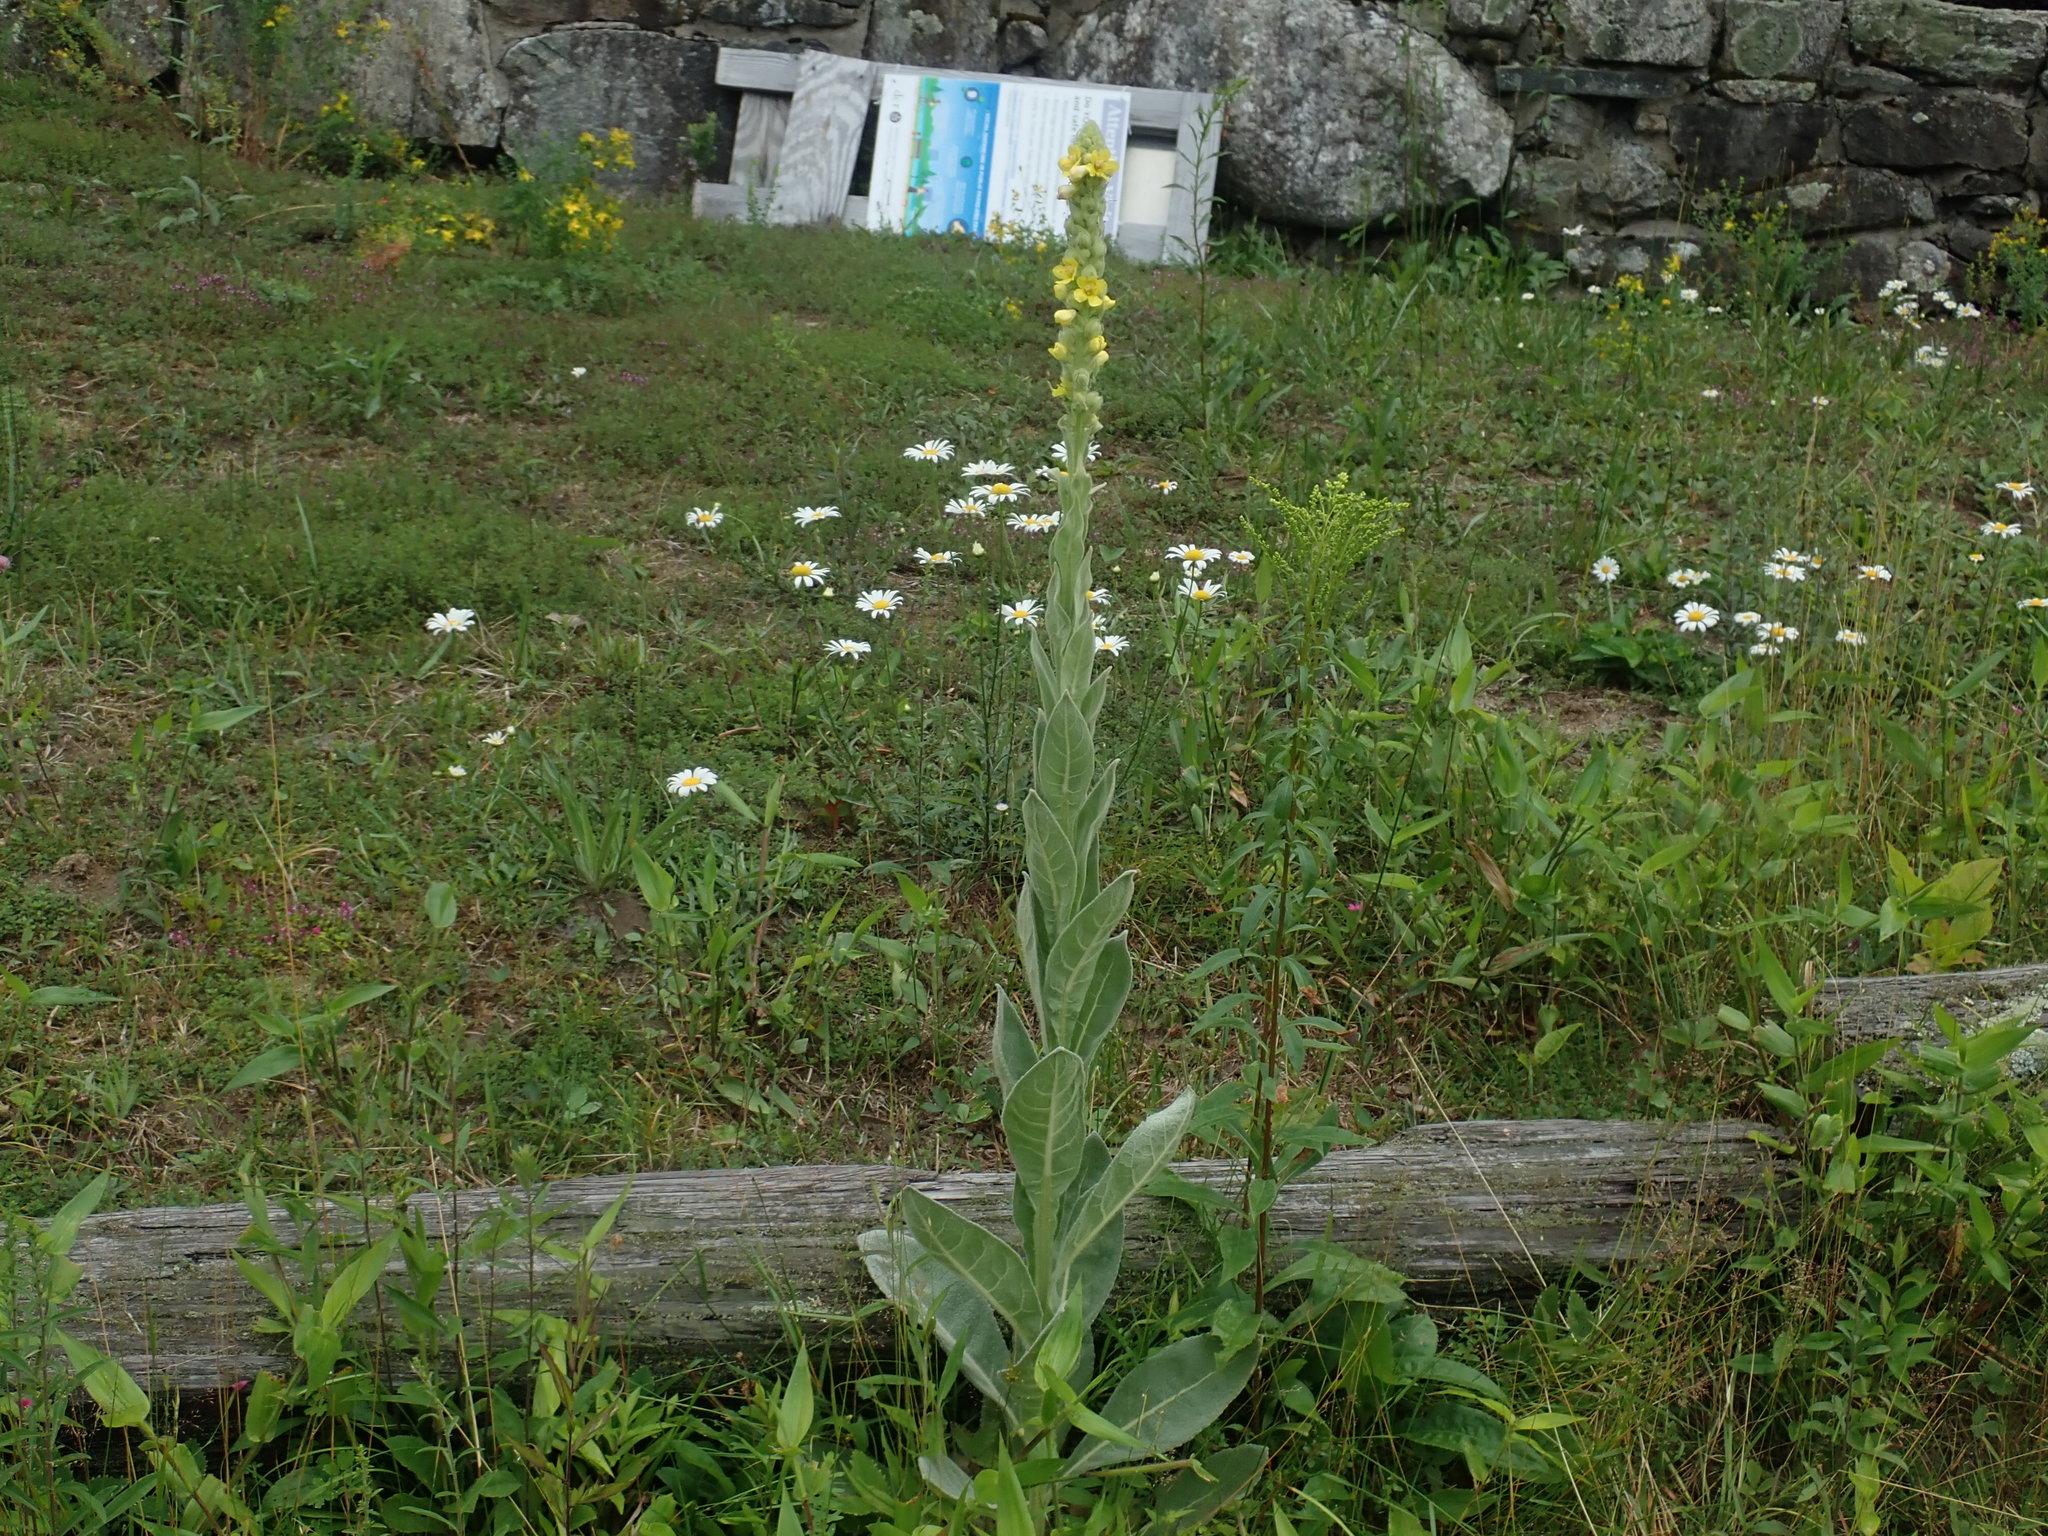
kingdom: Plantae
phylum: Tracheophyta
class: Magnoliopsida
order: Lamiales
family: Scrophulariaceae
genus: Verbascum
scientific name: Verbascum thapsus
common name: Common mullein
